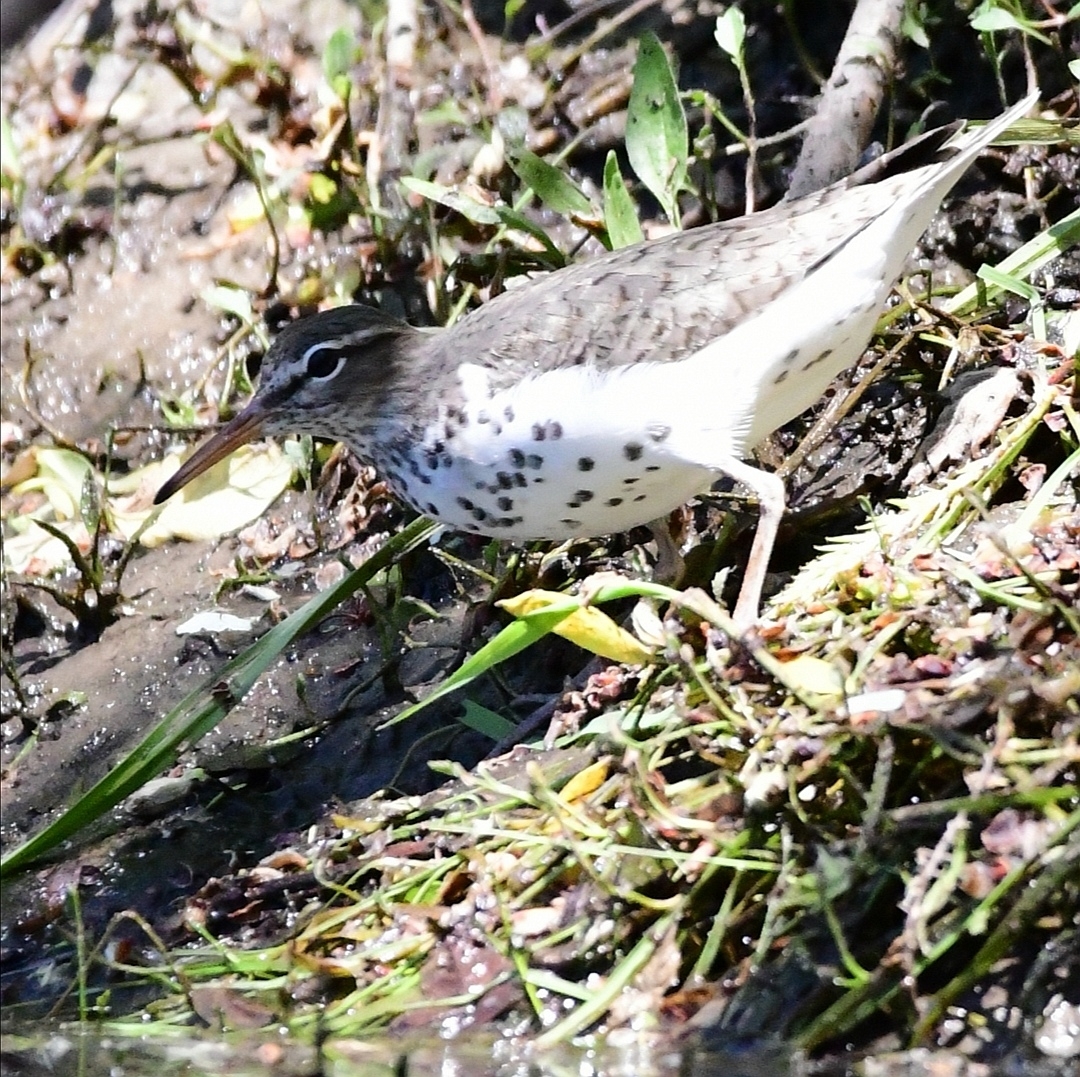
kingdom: Animalia
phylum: Chordata
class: Aves
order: Charadriiformes
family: Scolopacidae
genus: Actitis
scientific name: Actitis macularius
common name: Spotted sandpiper
